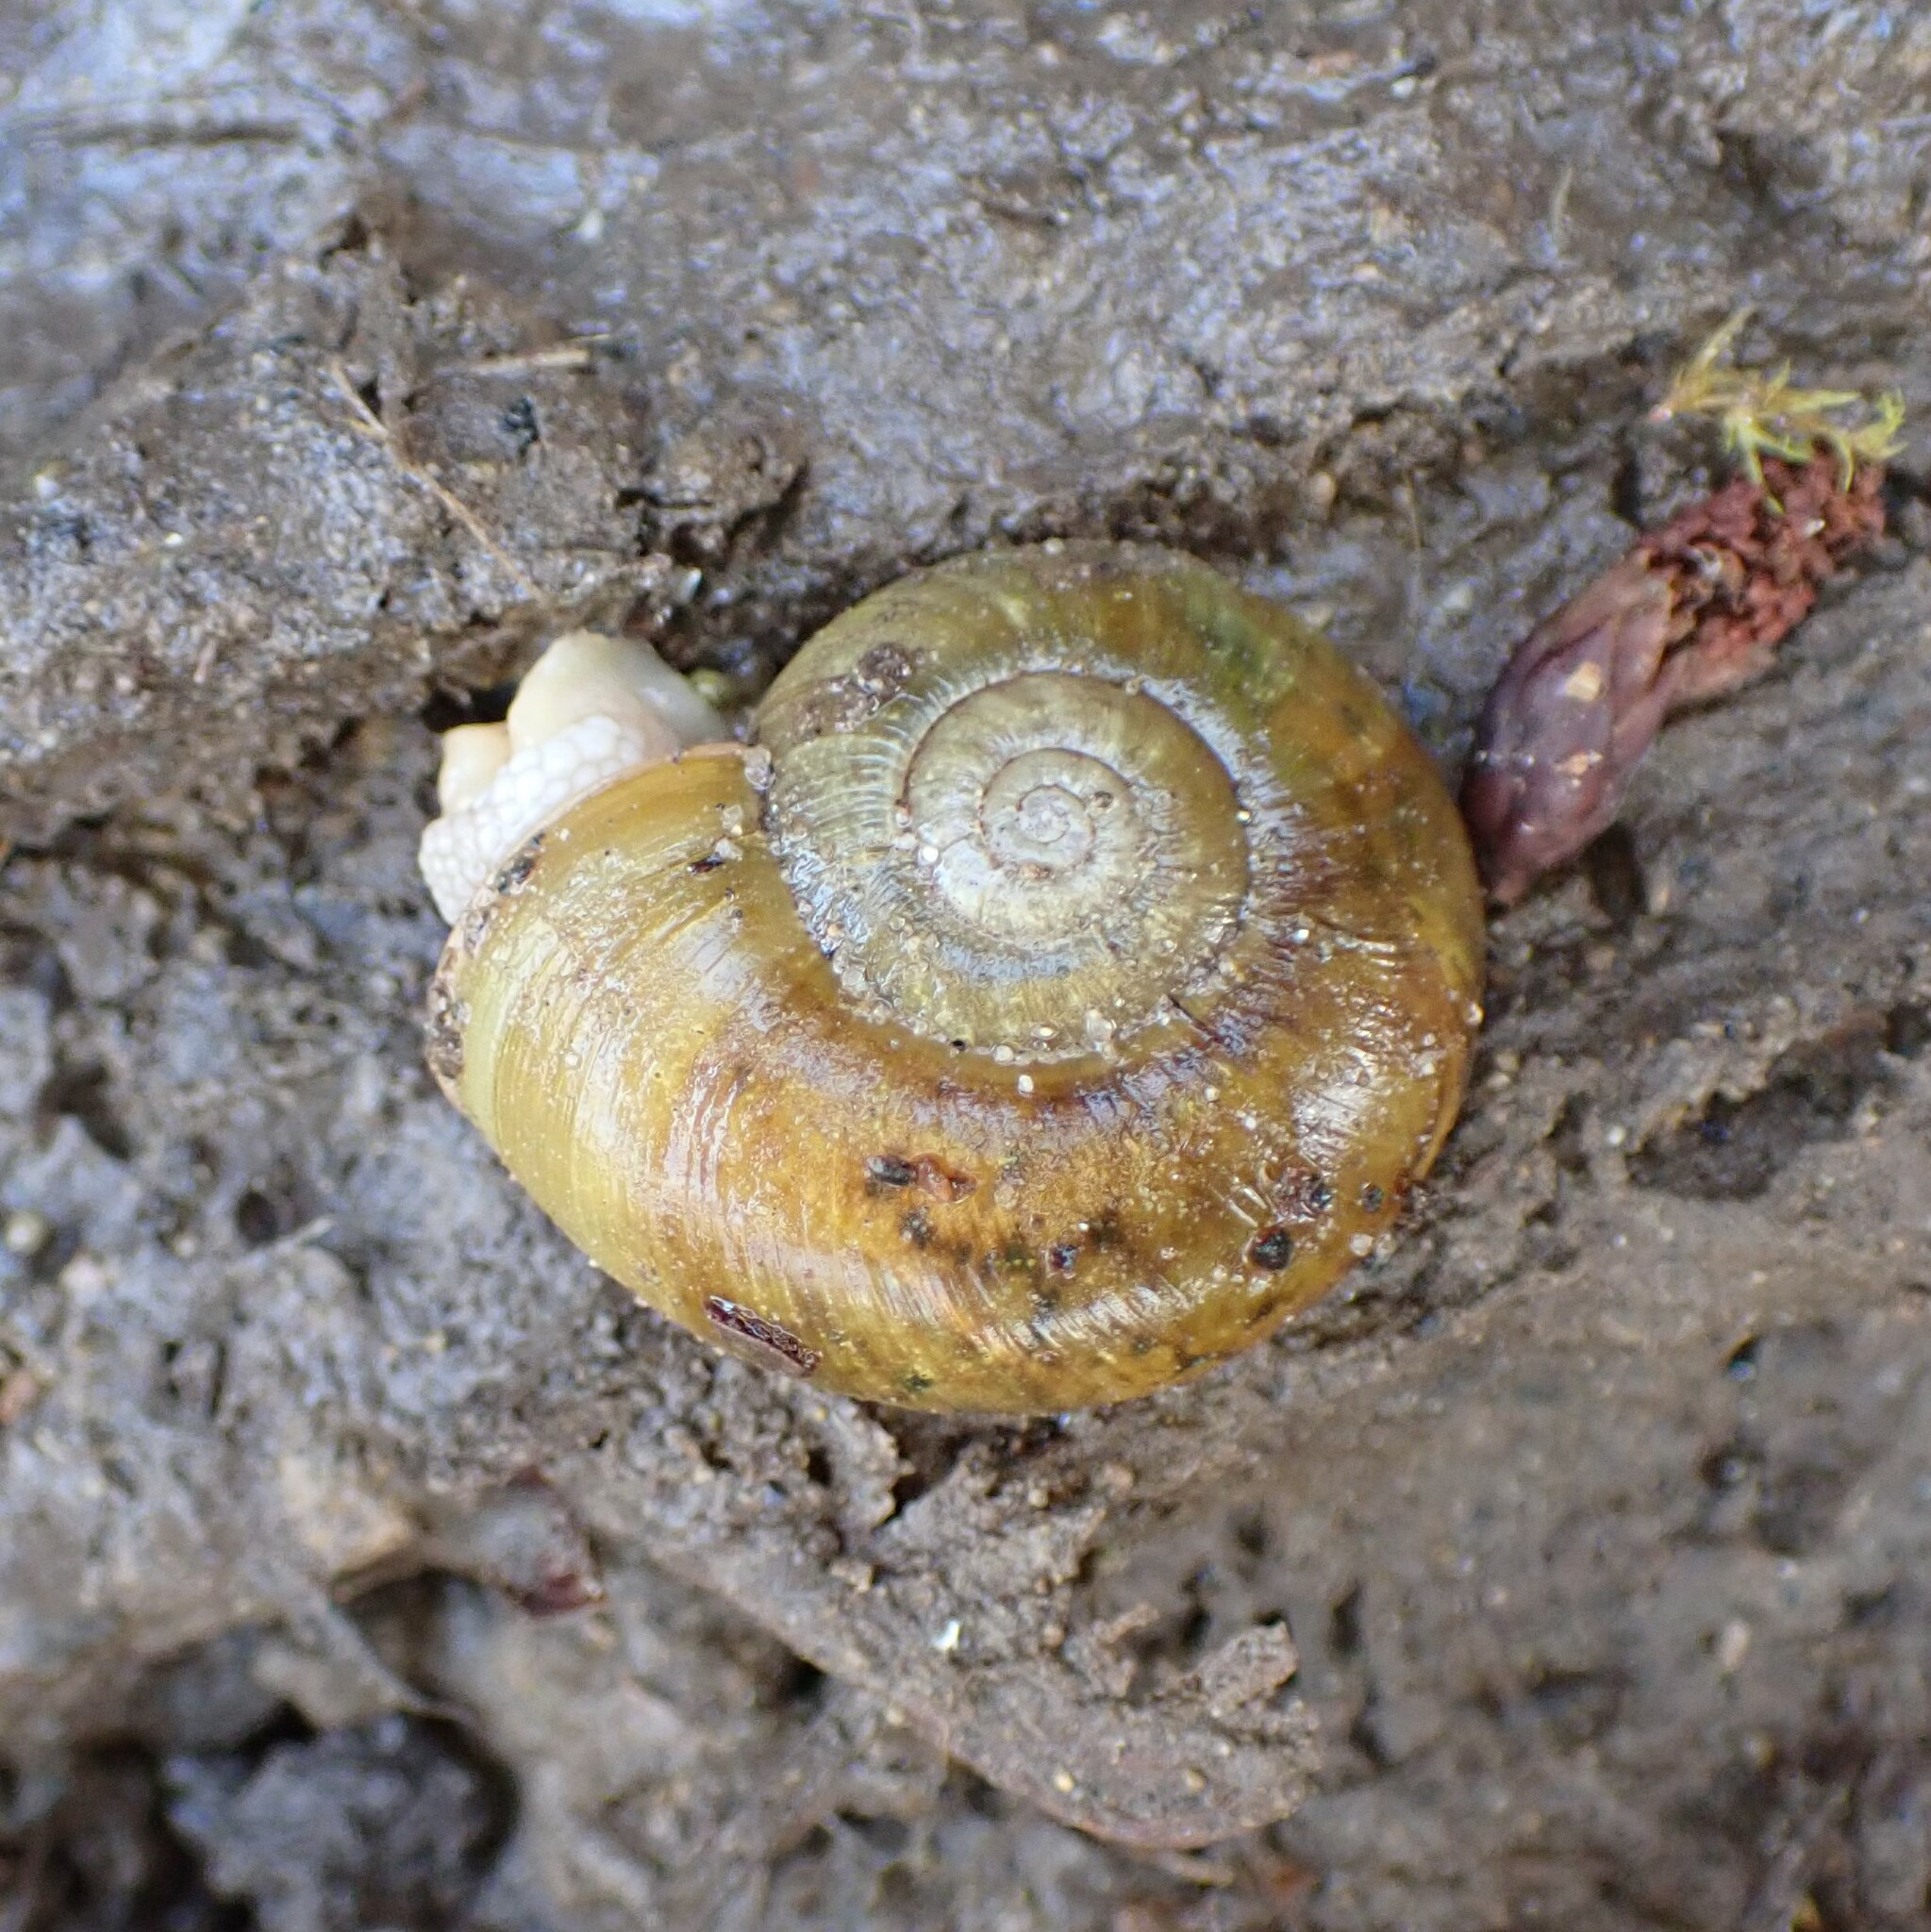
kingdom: Animalia
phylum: Mollusca
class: Gastropoda
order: Stylommatophora
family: Haplotrematidae
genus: Haplotrema
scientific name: Haplotrema vancouverense
